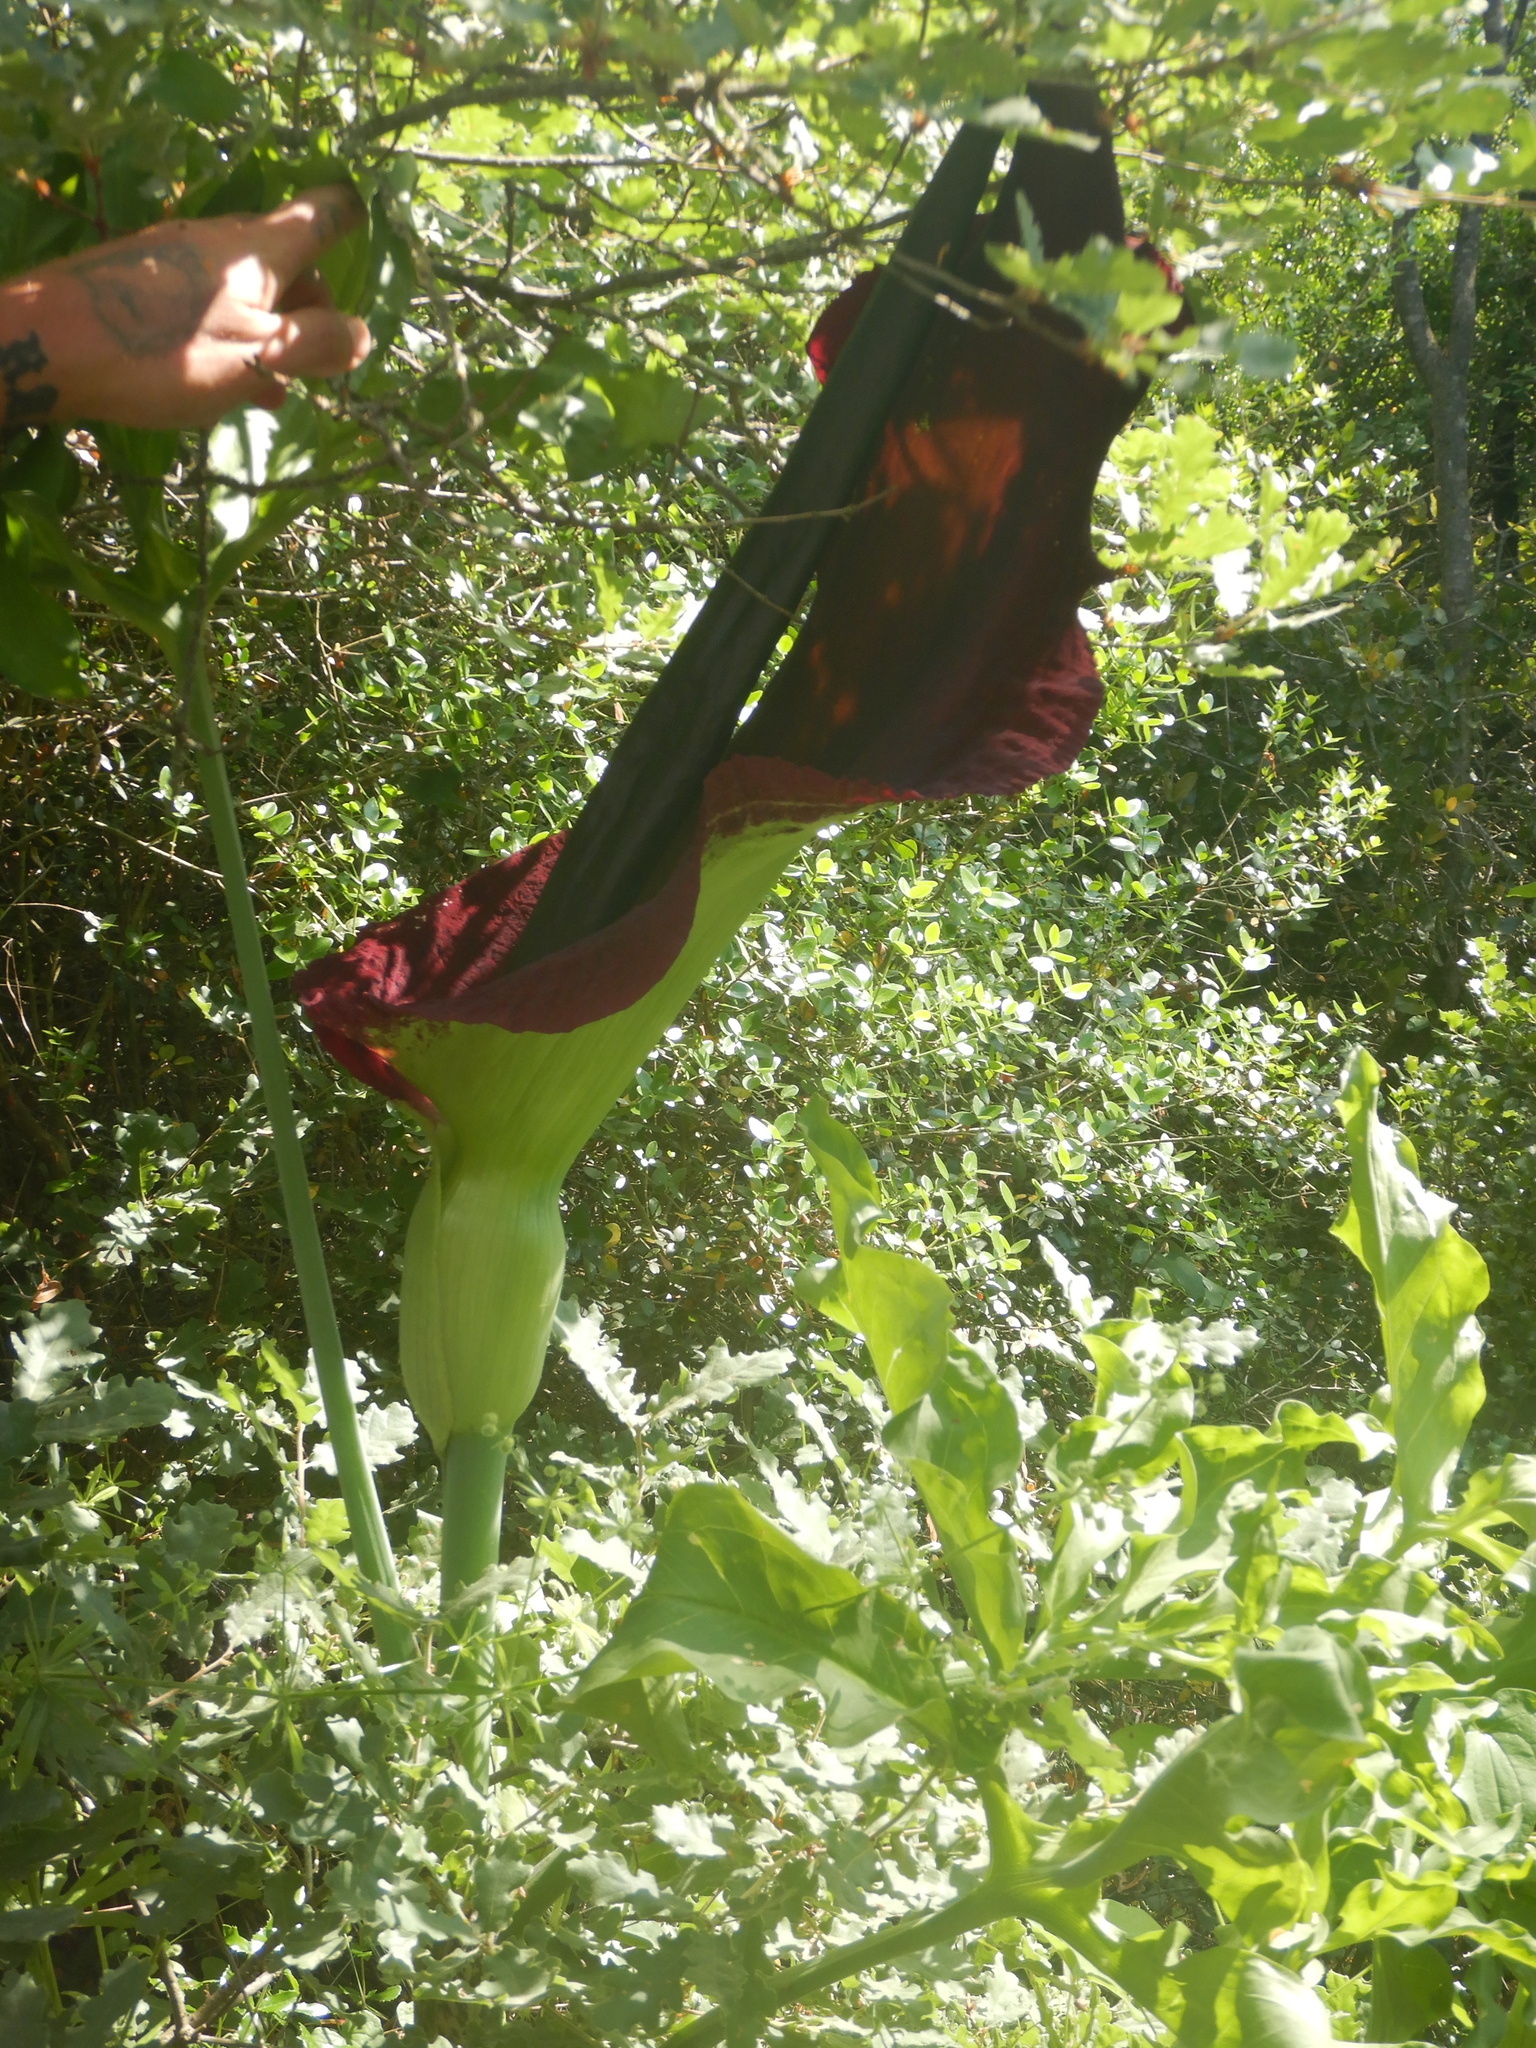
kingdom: Plantae
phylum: Tracheophyta
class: Liliopsida
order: Alismatales
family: Araceae
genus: Dracunculus
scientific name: Dracunculus vulgaris
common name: Dragon arum
